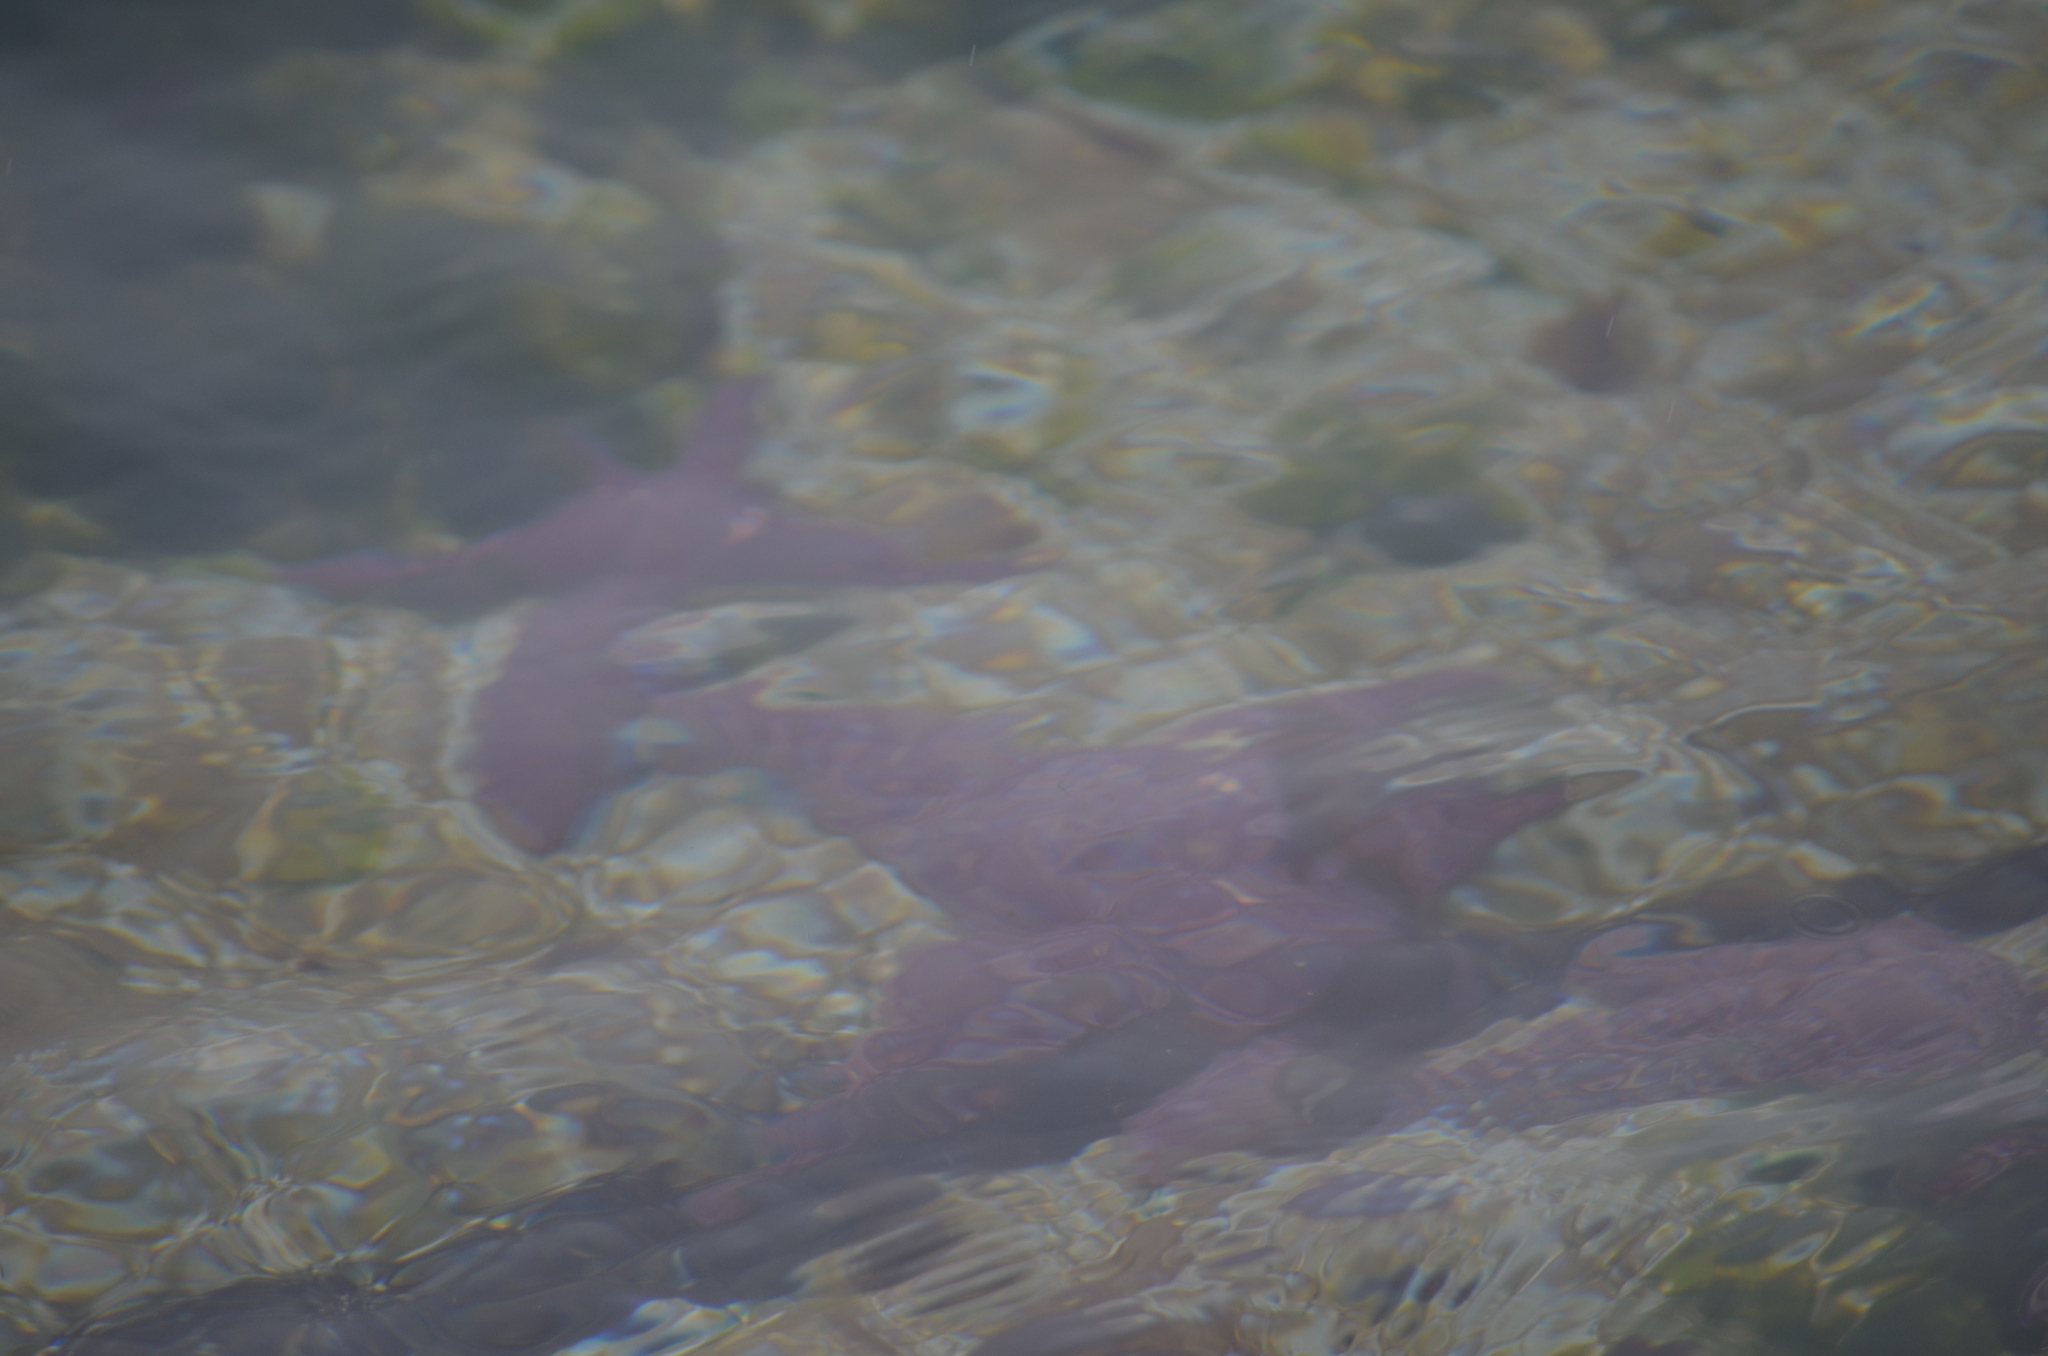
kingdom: Animalia
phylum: Echinodermata
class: Asteroidea
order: Forcipulatida
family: Asteriidae
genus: Pisaster
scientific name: Pisaster ochraceus
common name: Ochre stars
